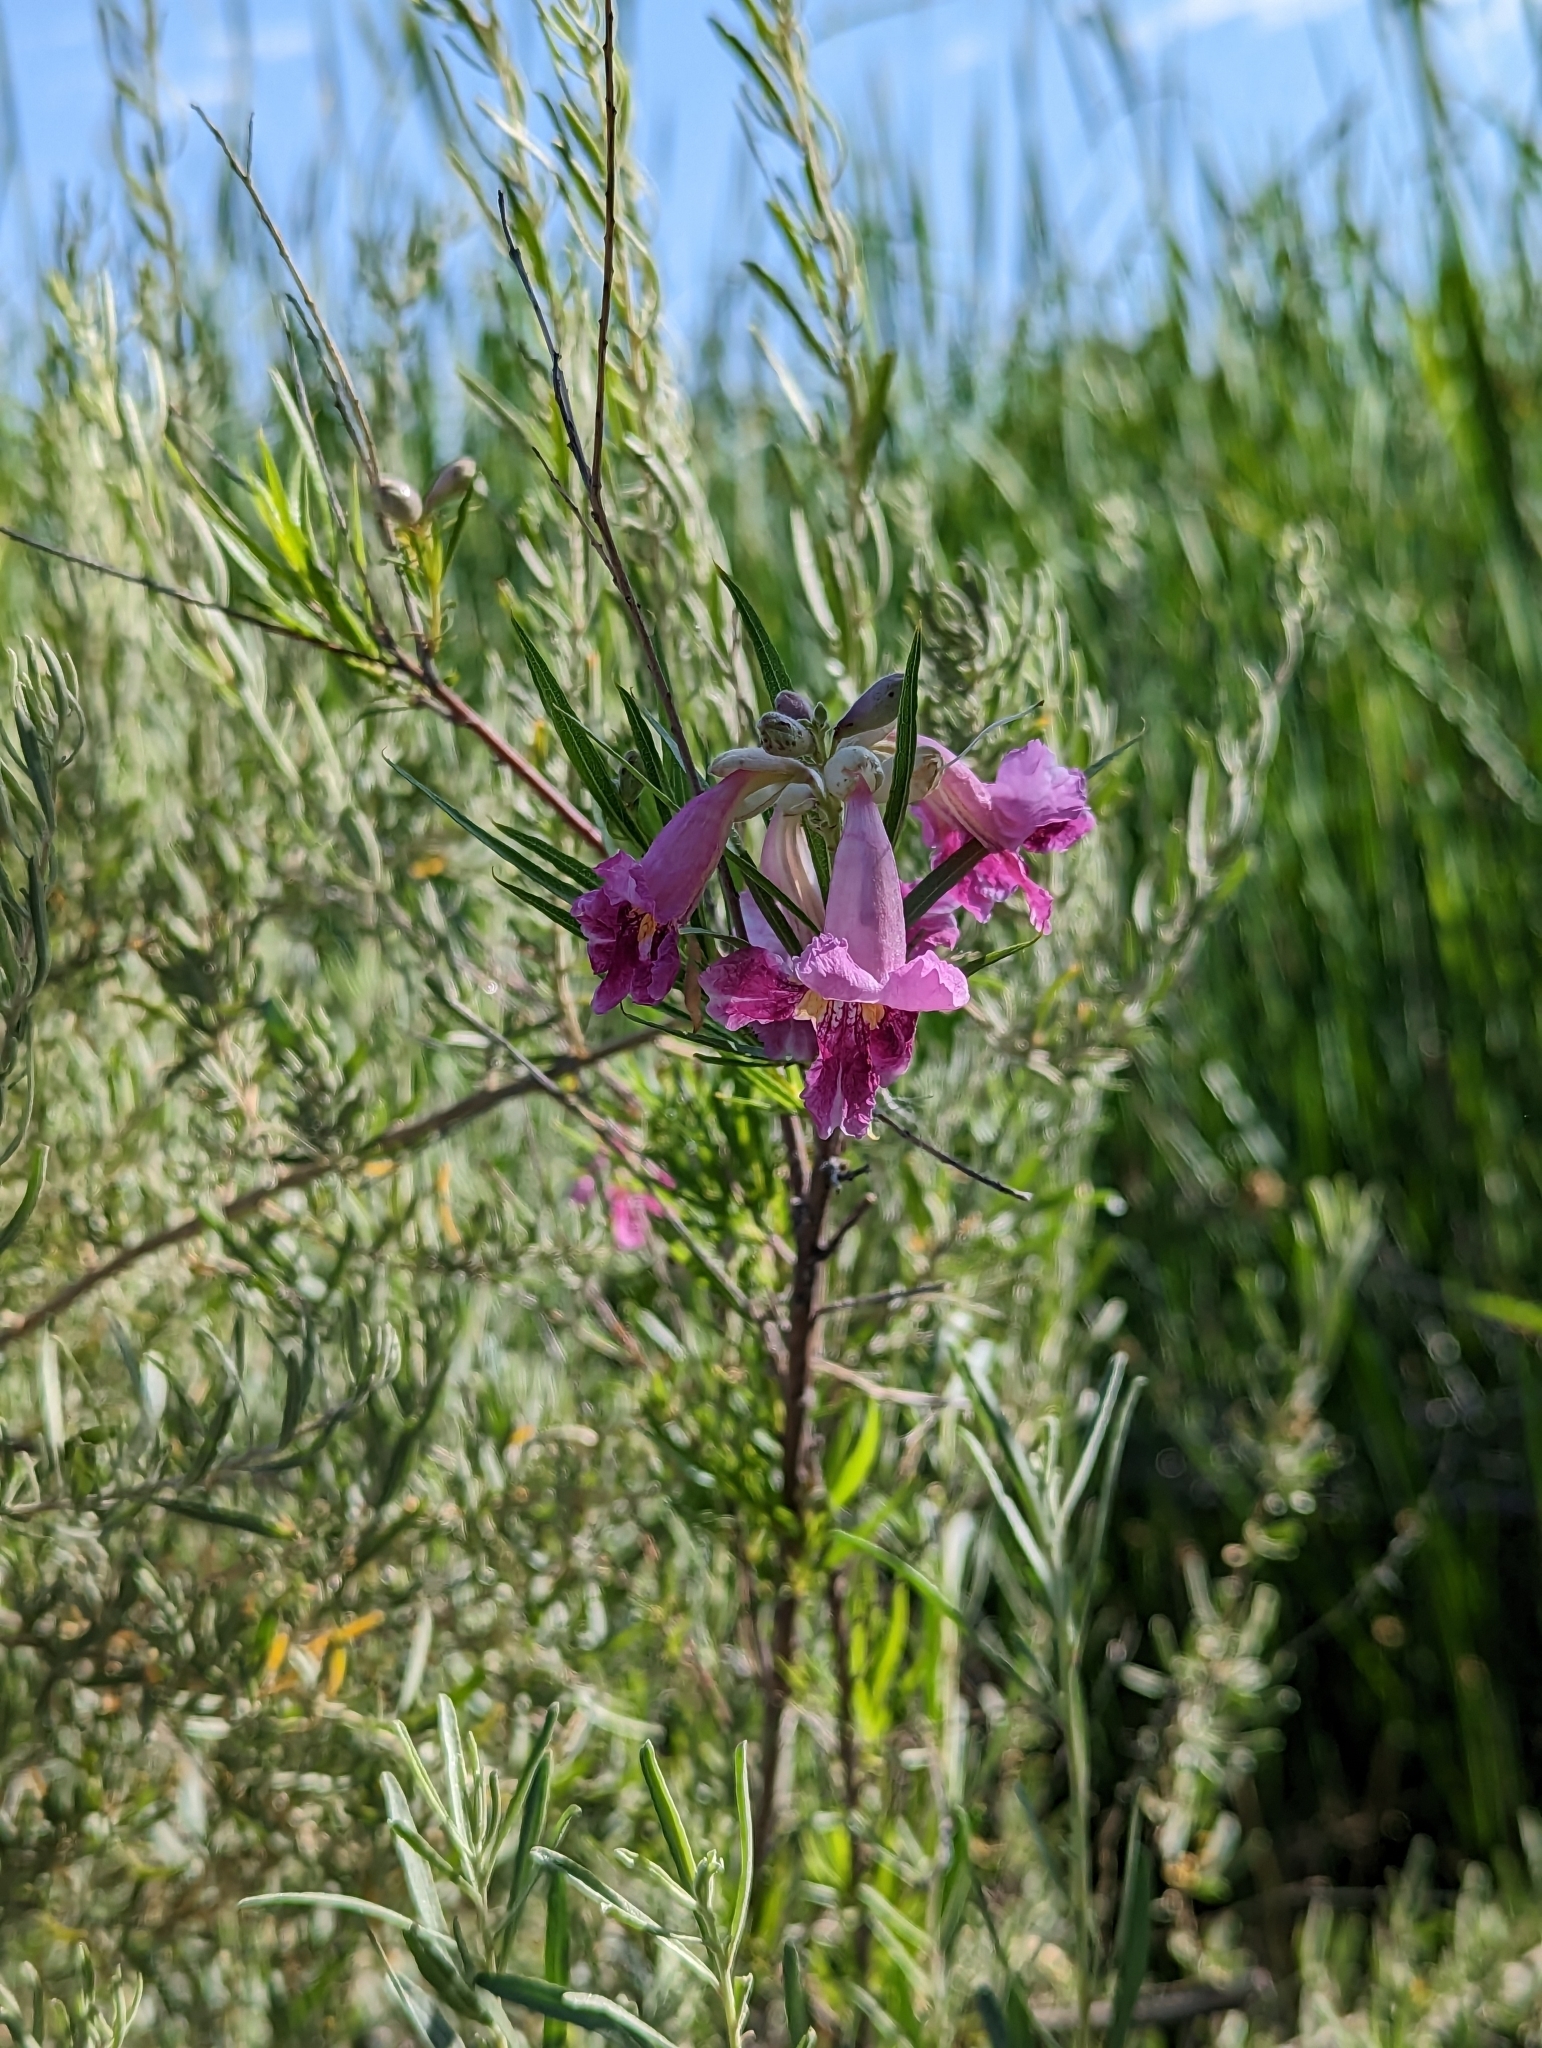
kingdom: Plantae
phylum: Tracheophyta
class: Magnoliopsida
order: Lamiales
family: Bignoniaceae
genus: Chilopsis
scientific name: Chilopsis linearis
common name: Desert-willow
